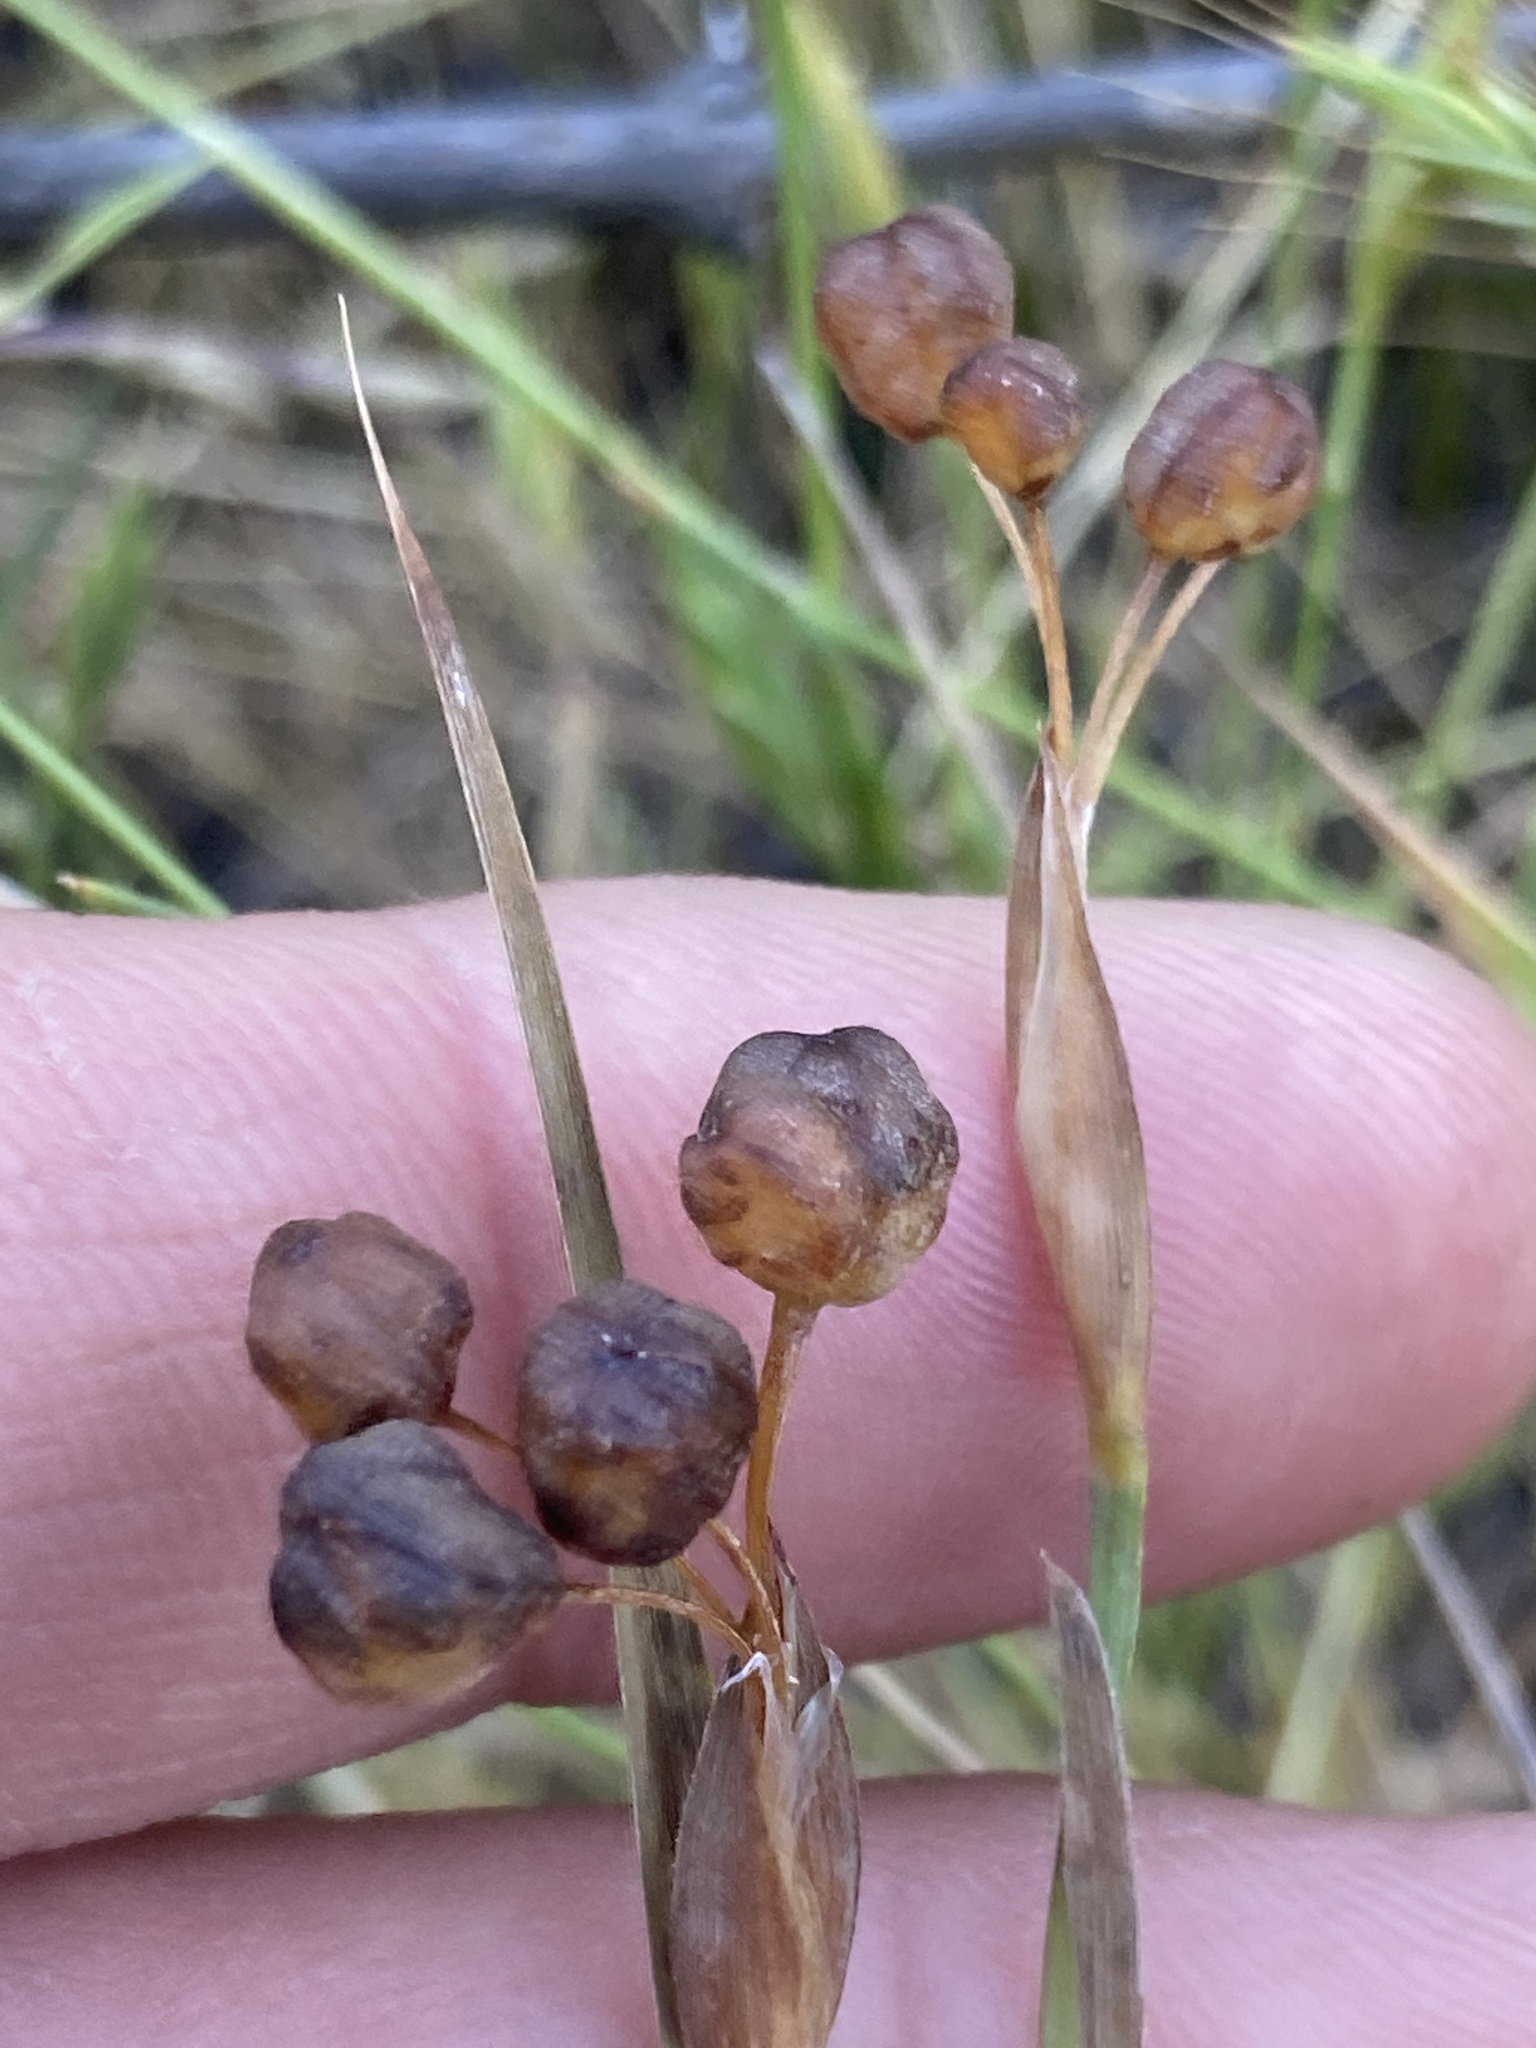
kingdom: Plantae
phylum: Tracheophyta
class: Liliopsida
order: Asparagales
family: Iridaceae
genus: Sisyrinchium
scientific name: Sisyrinchium bellum
